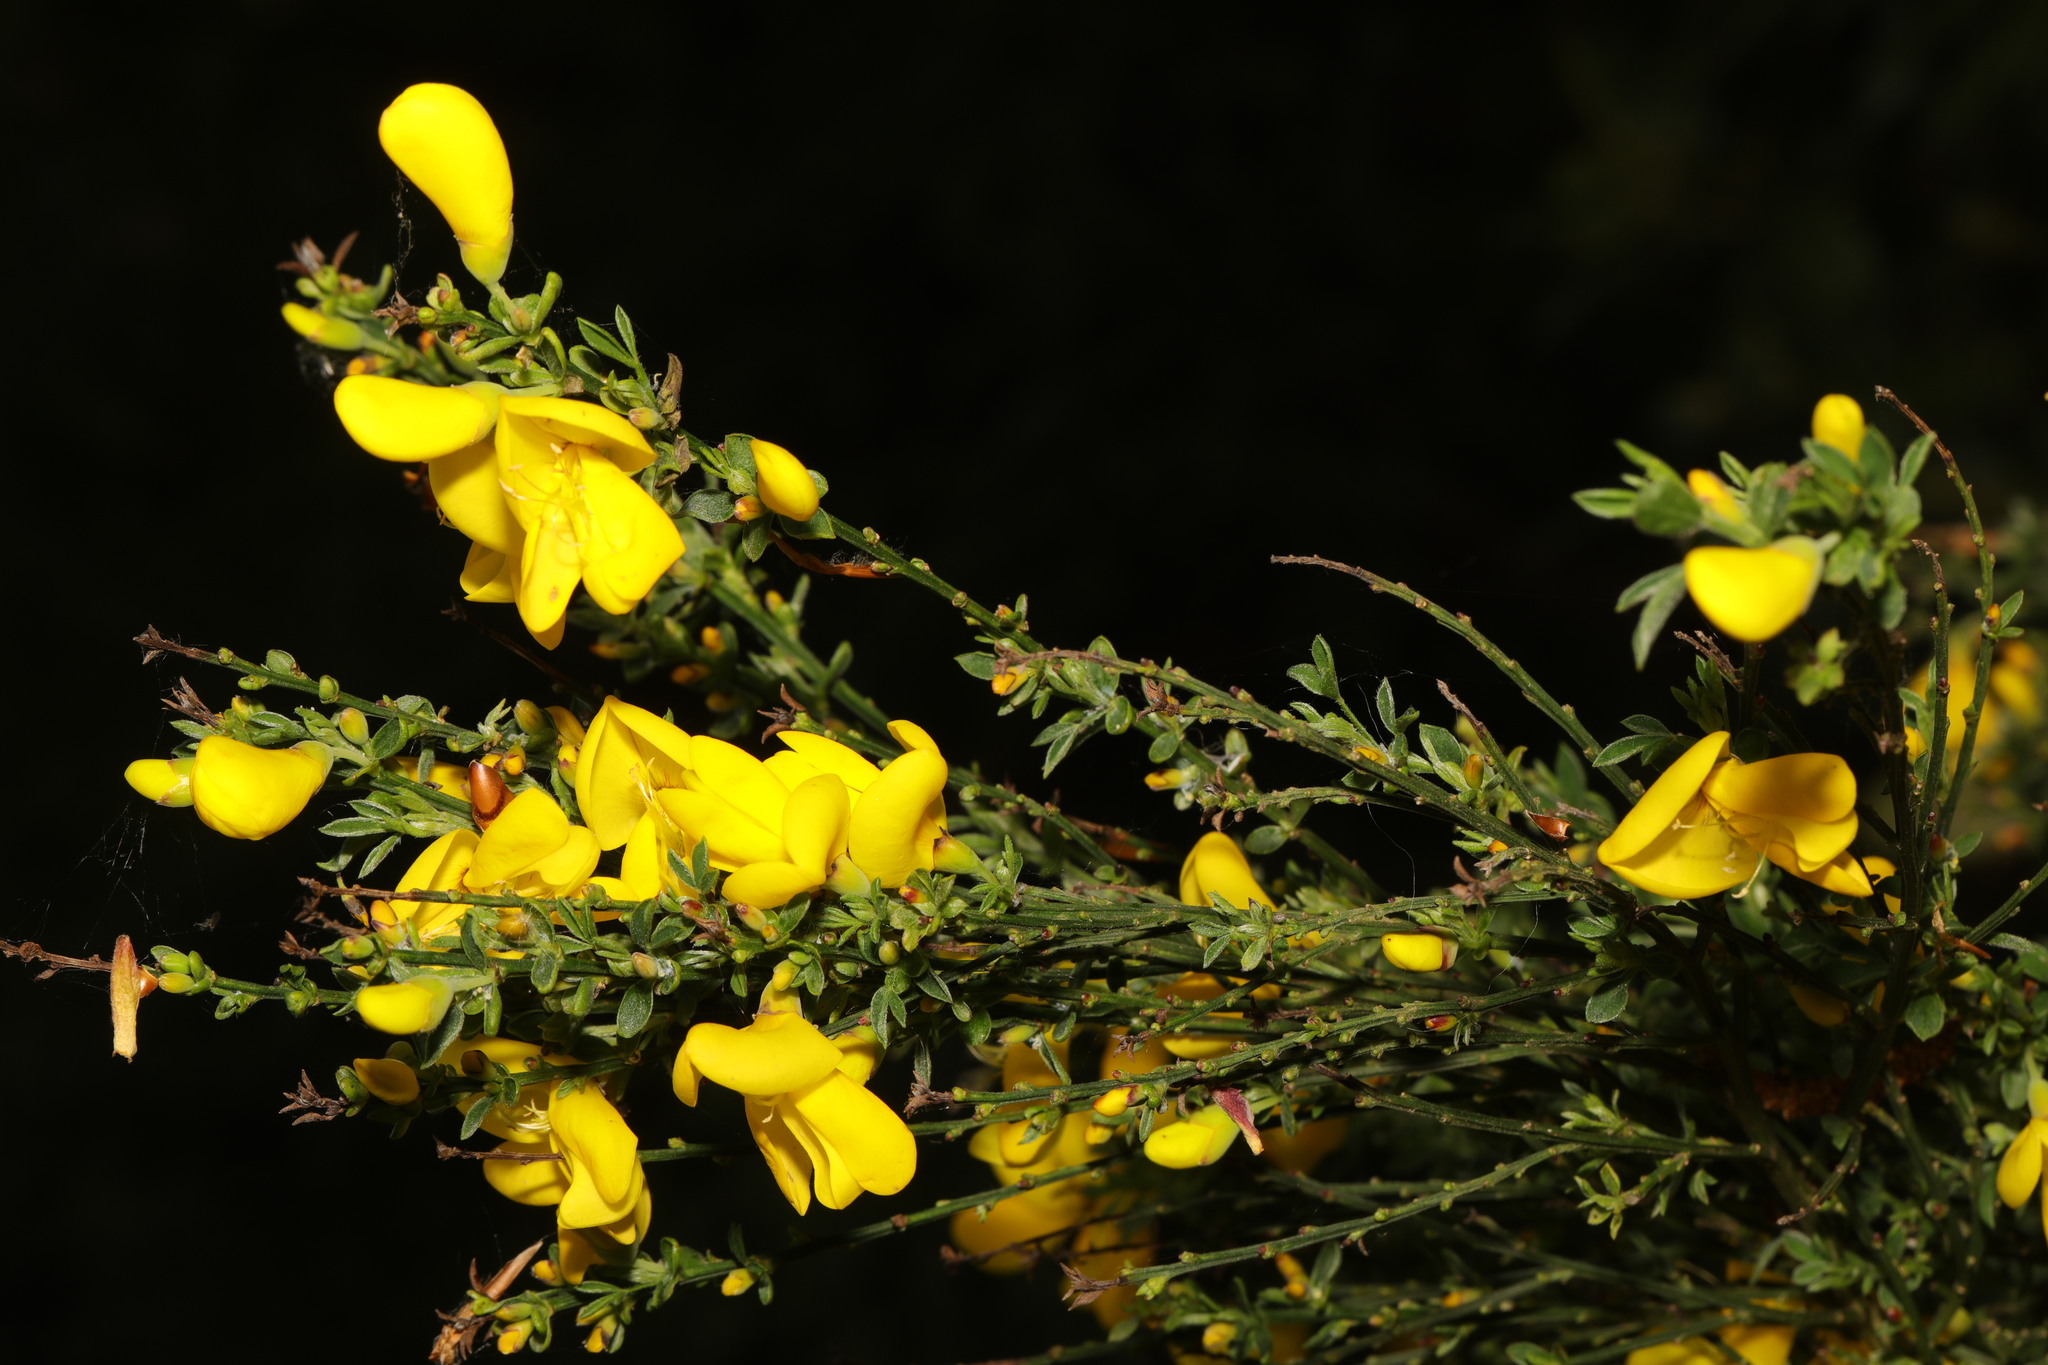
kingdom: Plantae
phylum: Tracheophyta
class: Magnoliopsida
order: Fabales
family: Fabaceae
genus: Cytisus
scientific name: Cytisus scoparius
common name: Scotch broom
